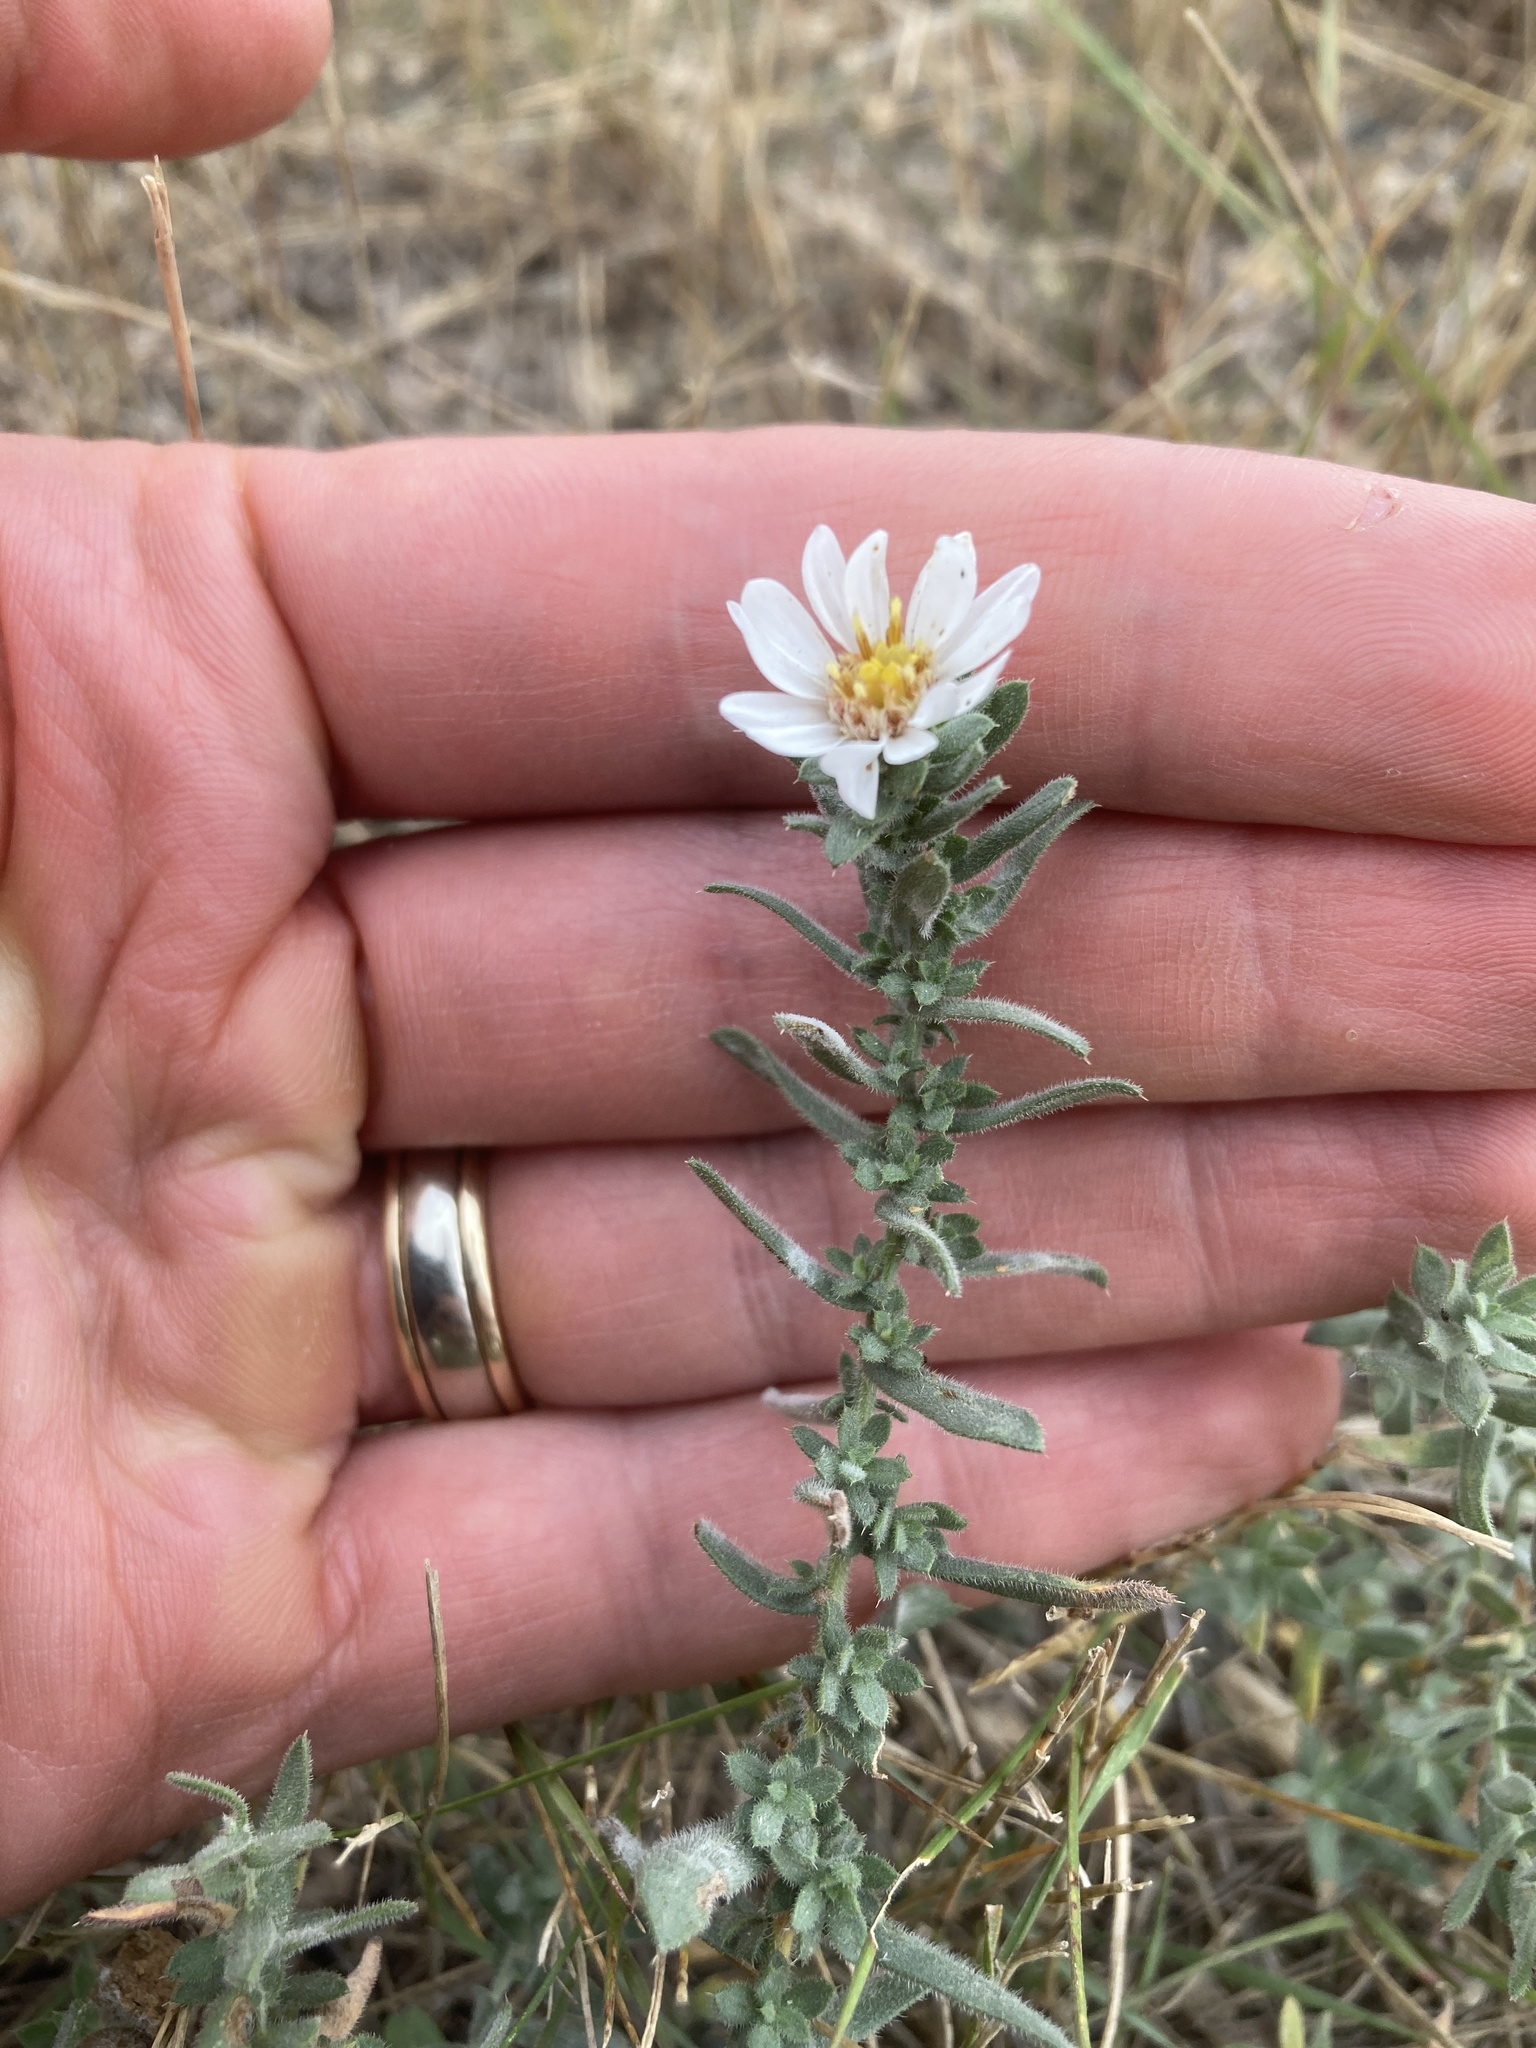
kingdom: Plantae
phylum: Tracheophyta
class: Magnoliopsida
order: Asterales
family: Asteraceae
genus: Symphyotrichum
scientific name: Symphyotrichum ericoides
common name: Heath aster
